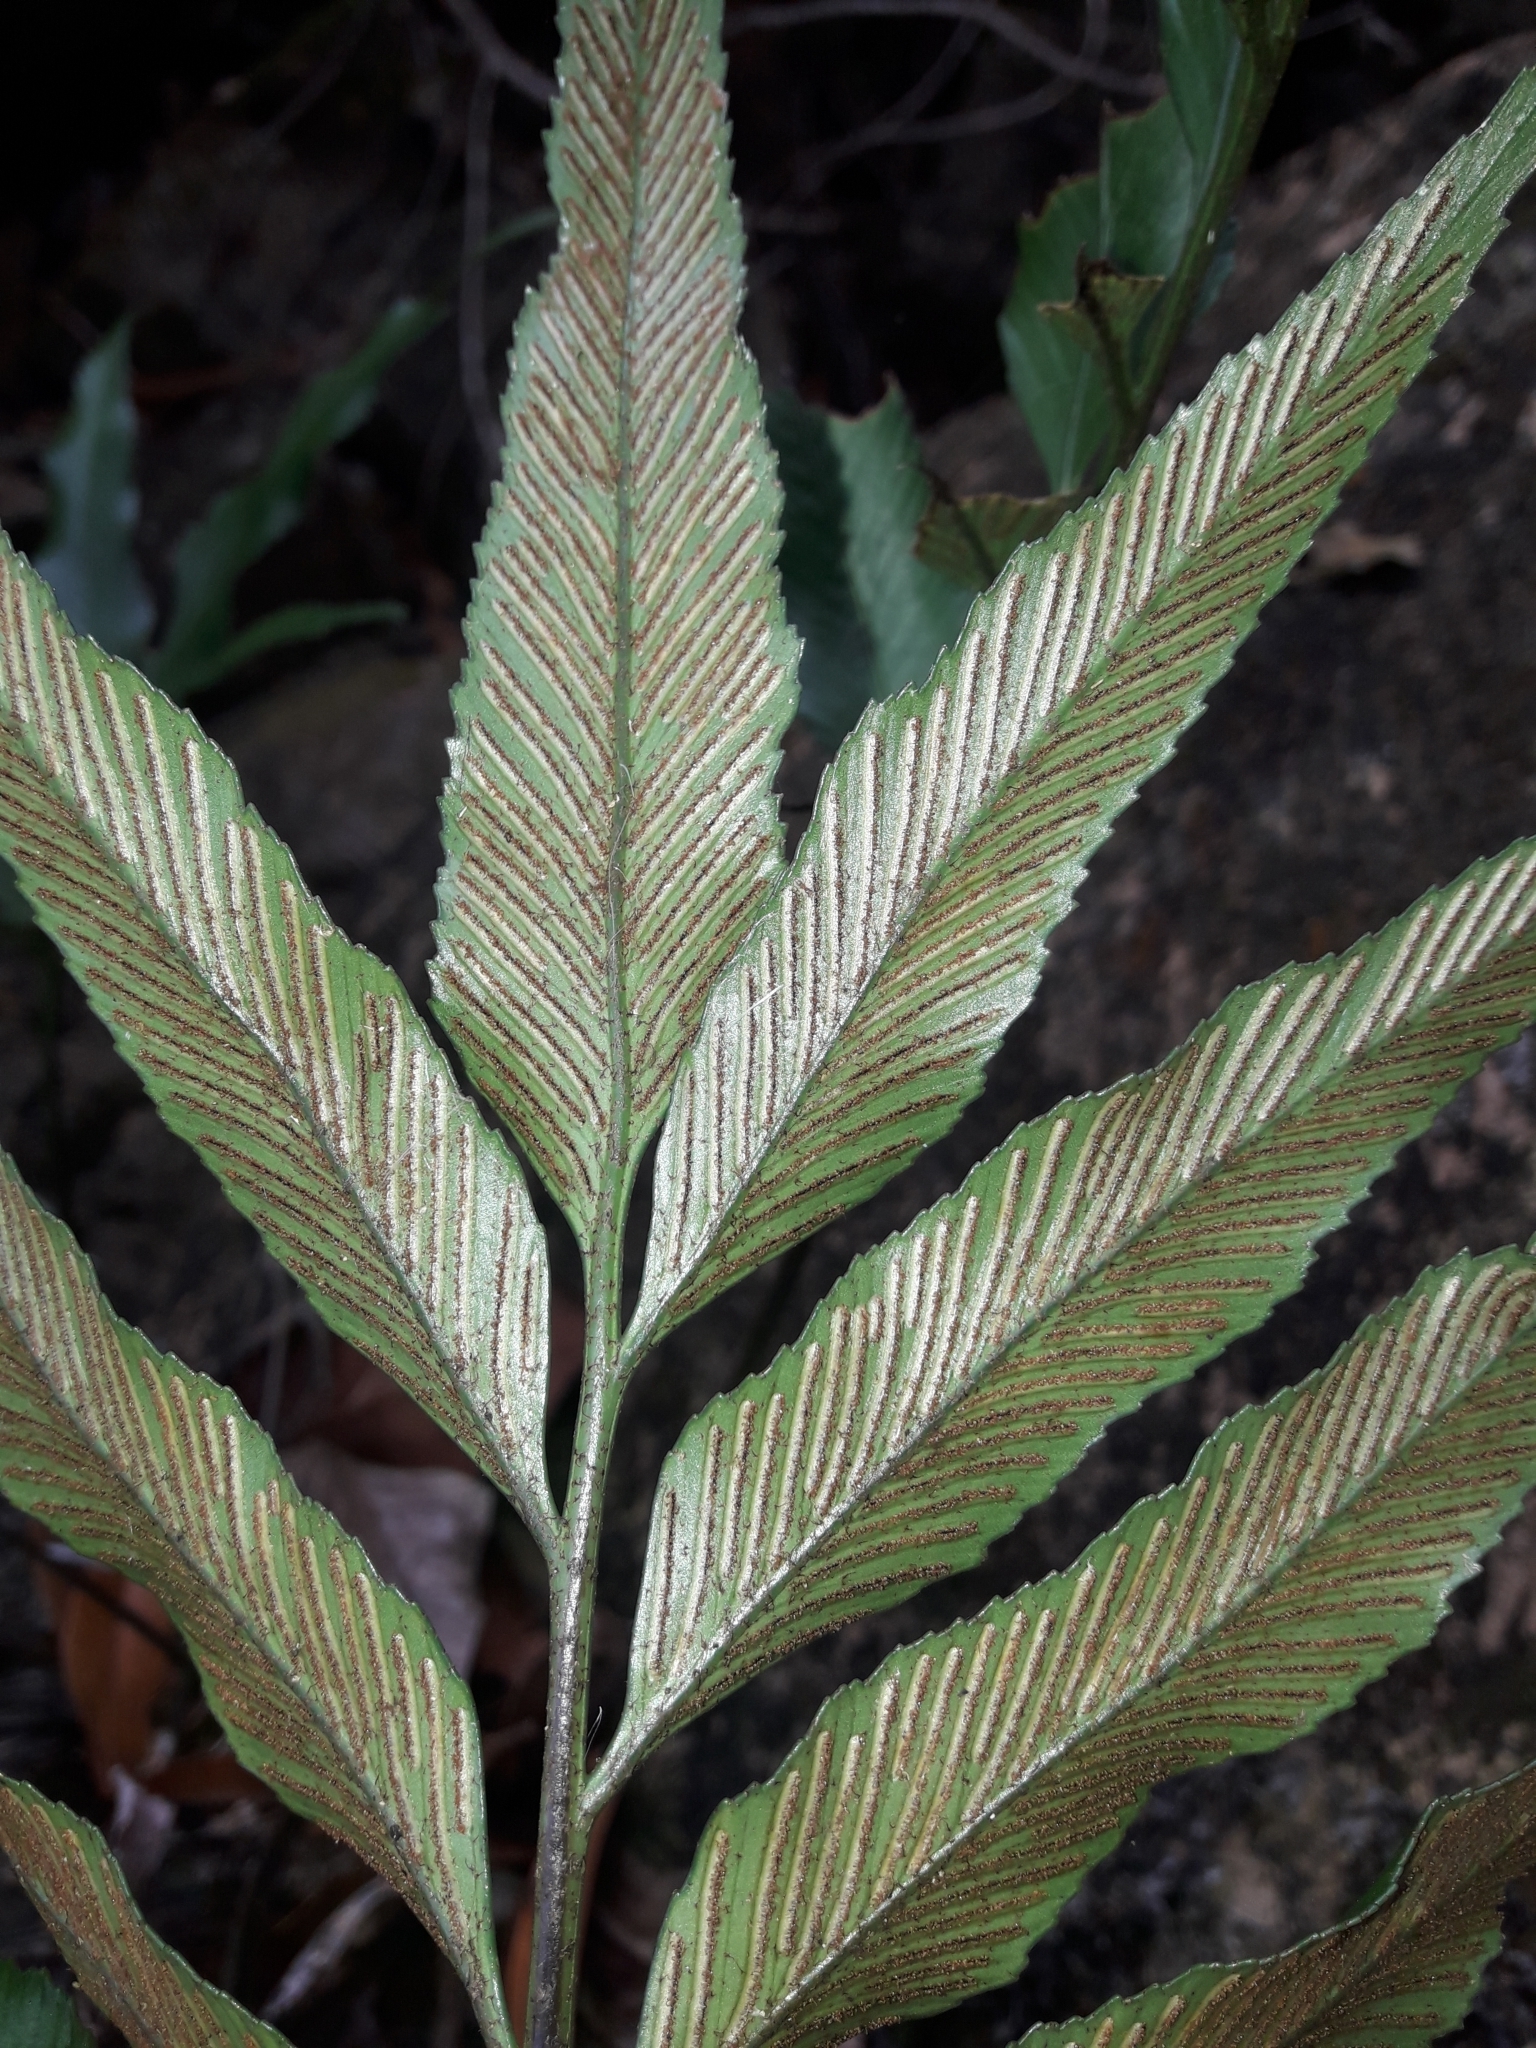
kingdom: Plantae
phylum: Tracheophyta
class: Polypodiopsida
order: Polypodiales
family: Aspleniaceae
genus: Asplenium
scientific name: Asplenium oligolepidum
